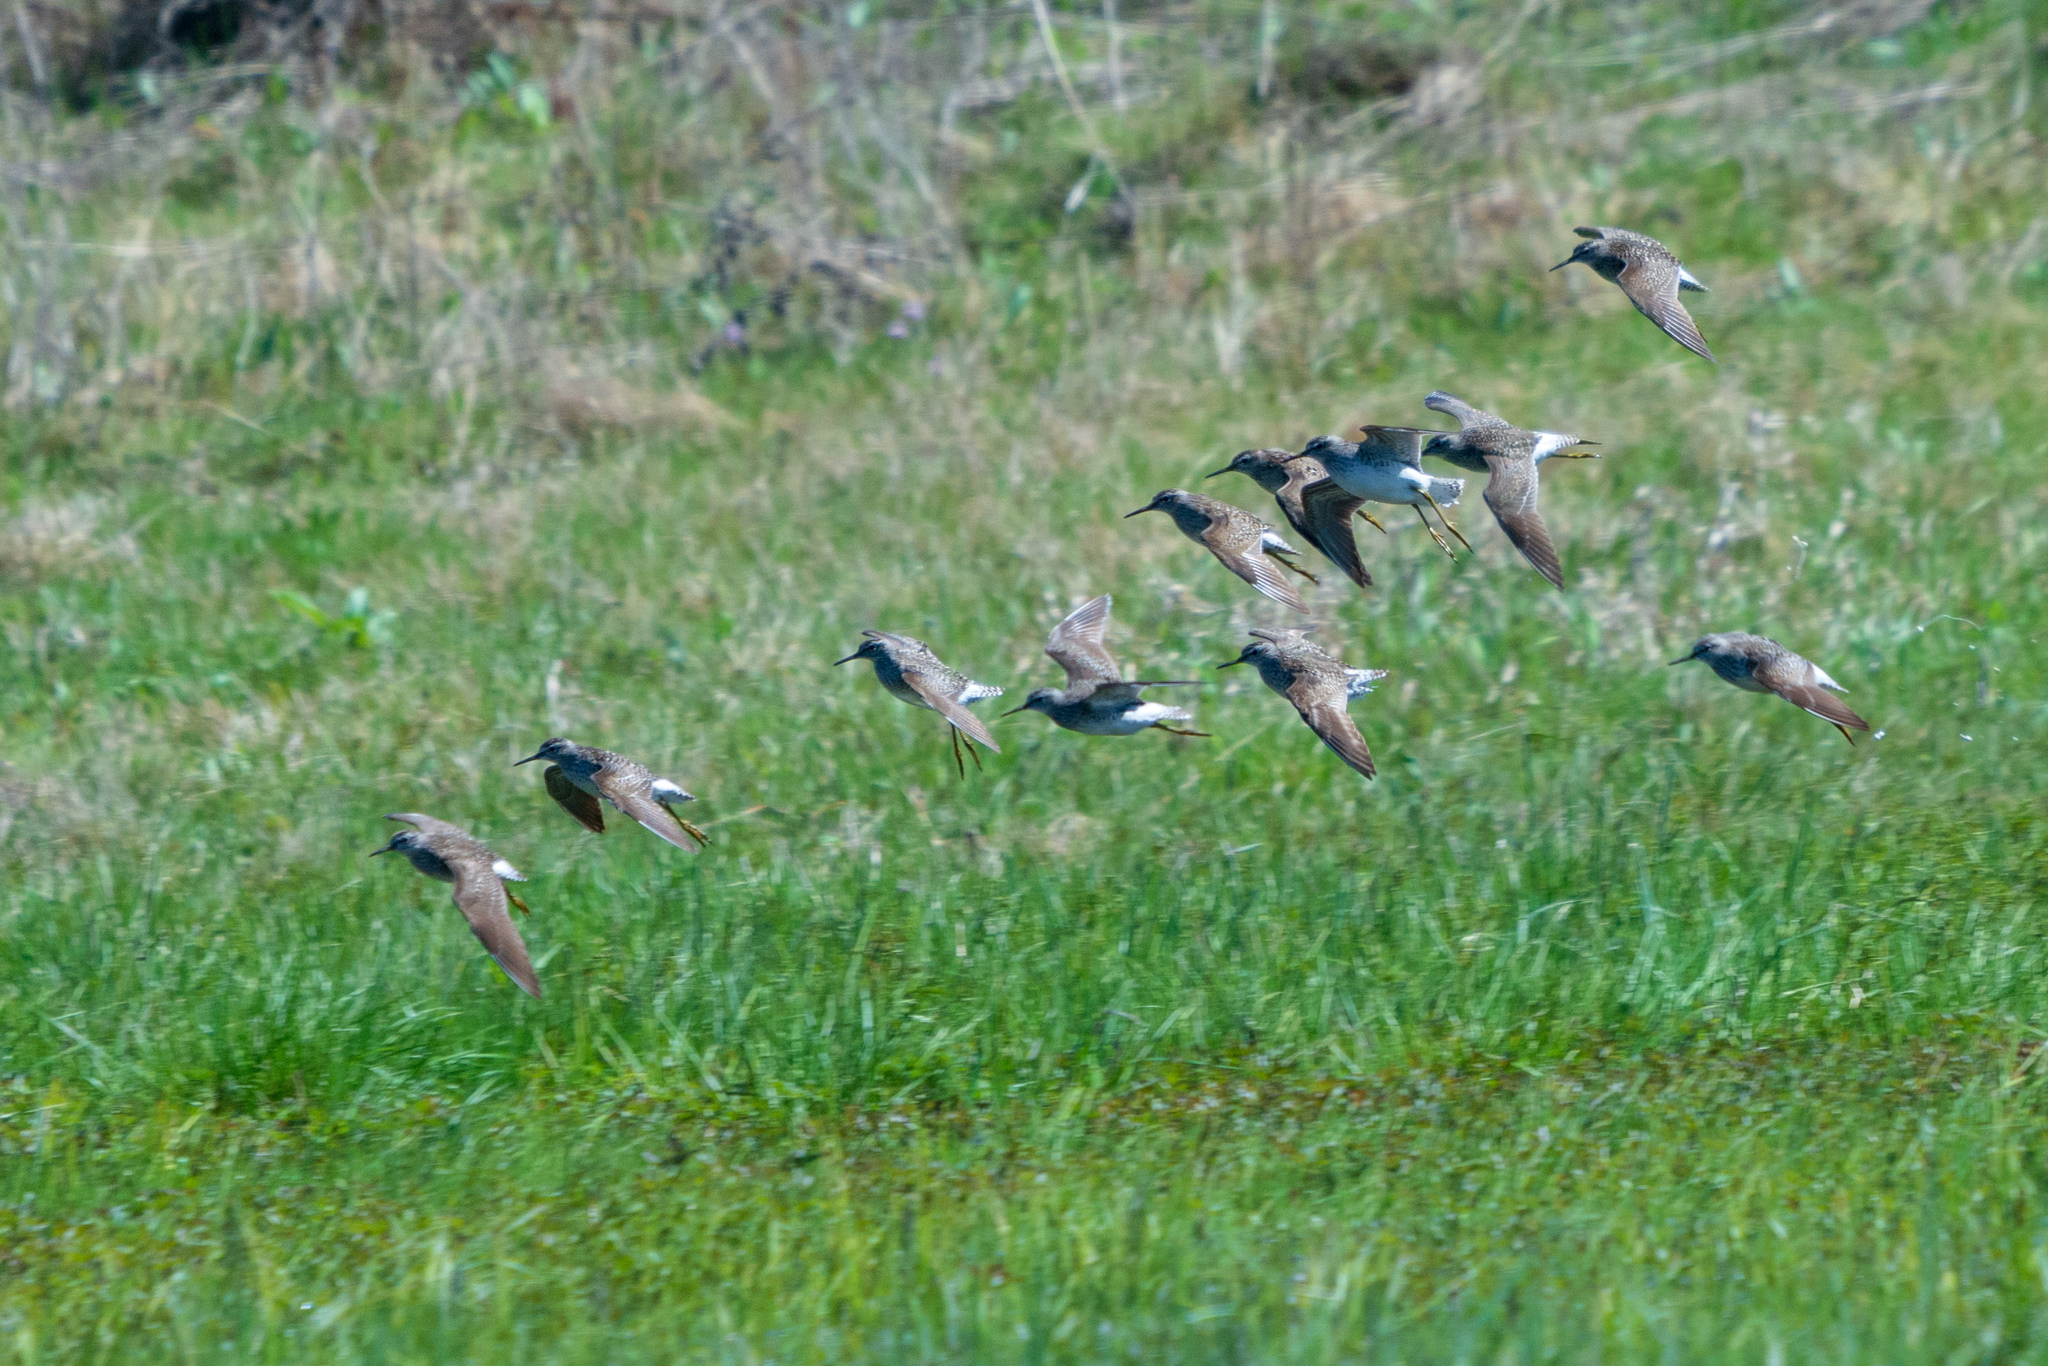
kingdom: Animalia
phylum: Chordata
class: Aves
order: Charadriiformes
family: Scolopacidae
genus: Tringa
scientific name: Tringa glareola
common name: Wood sandpiper
